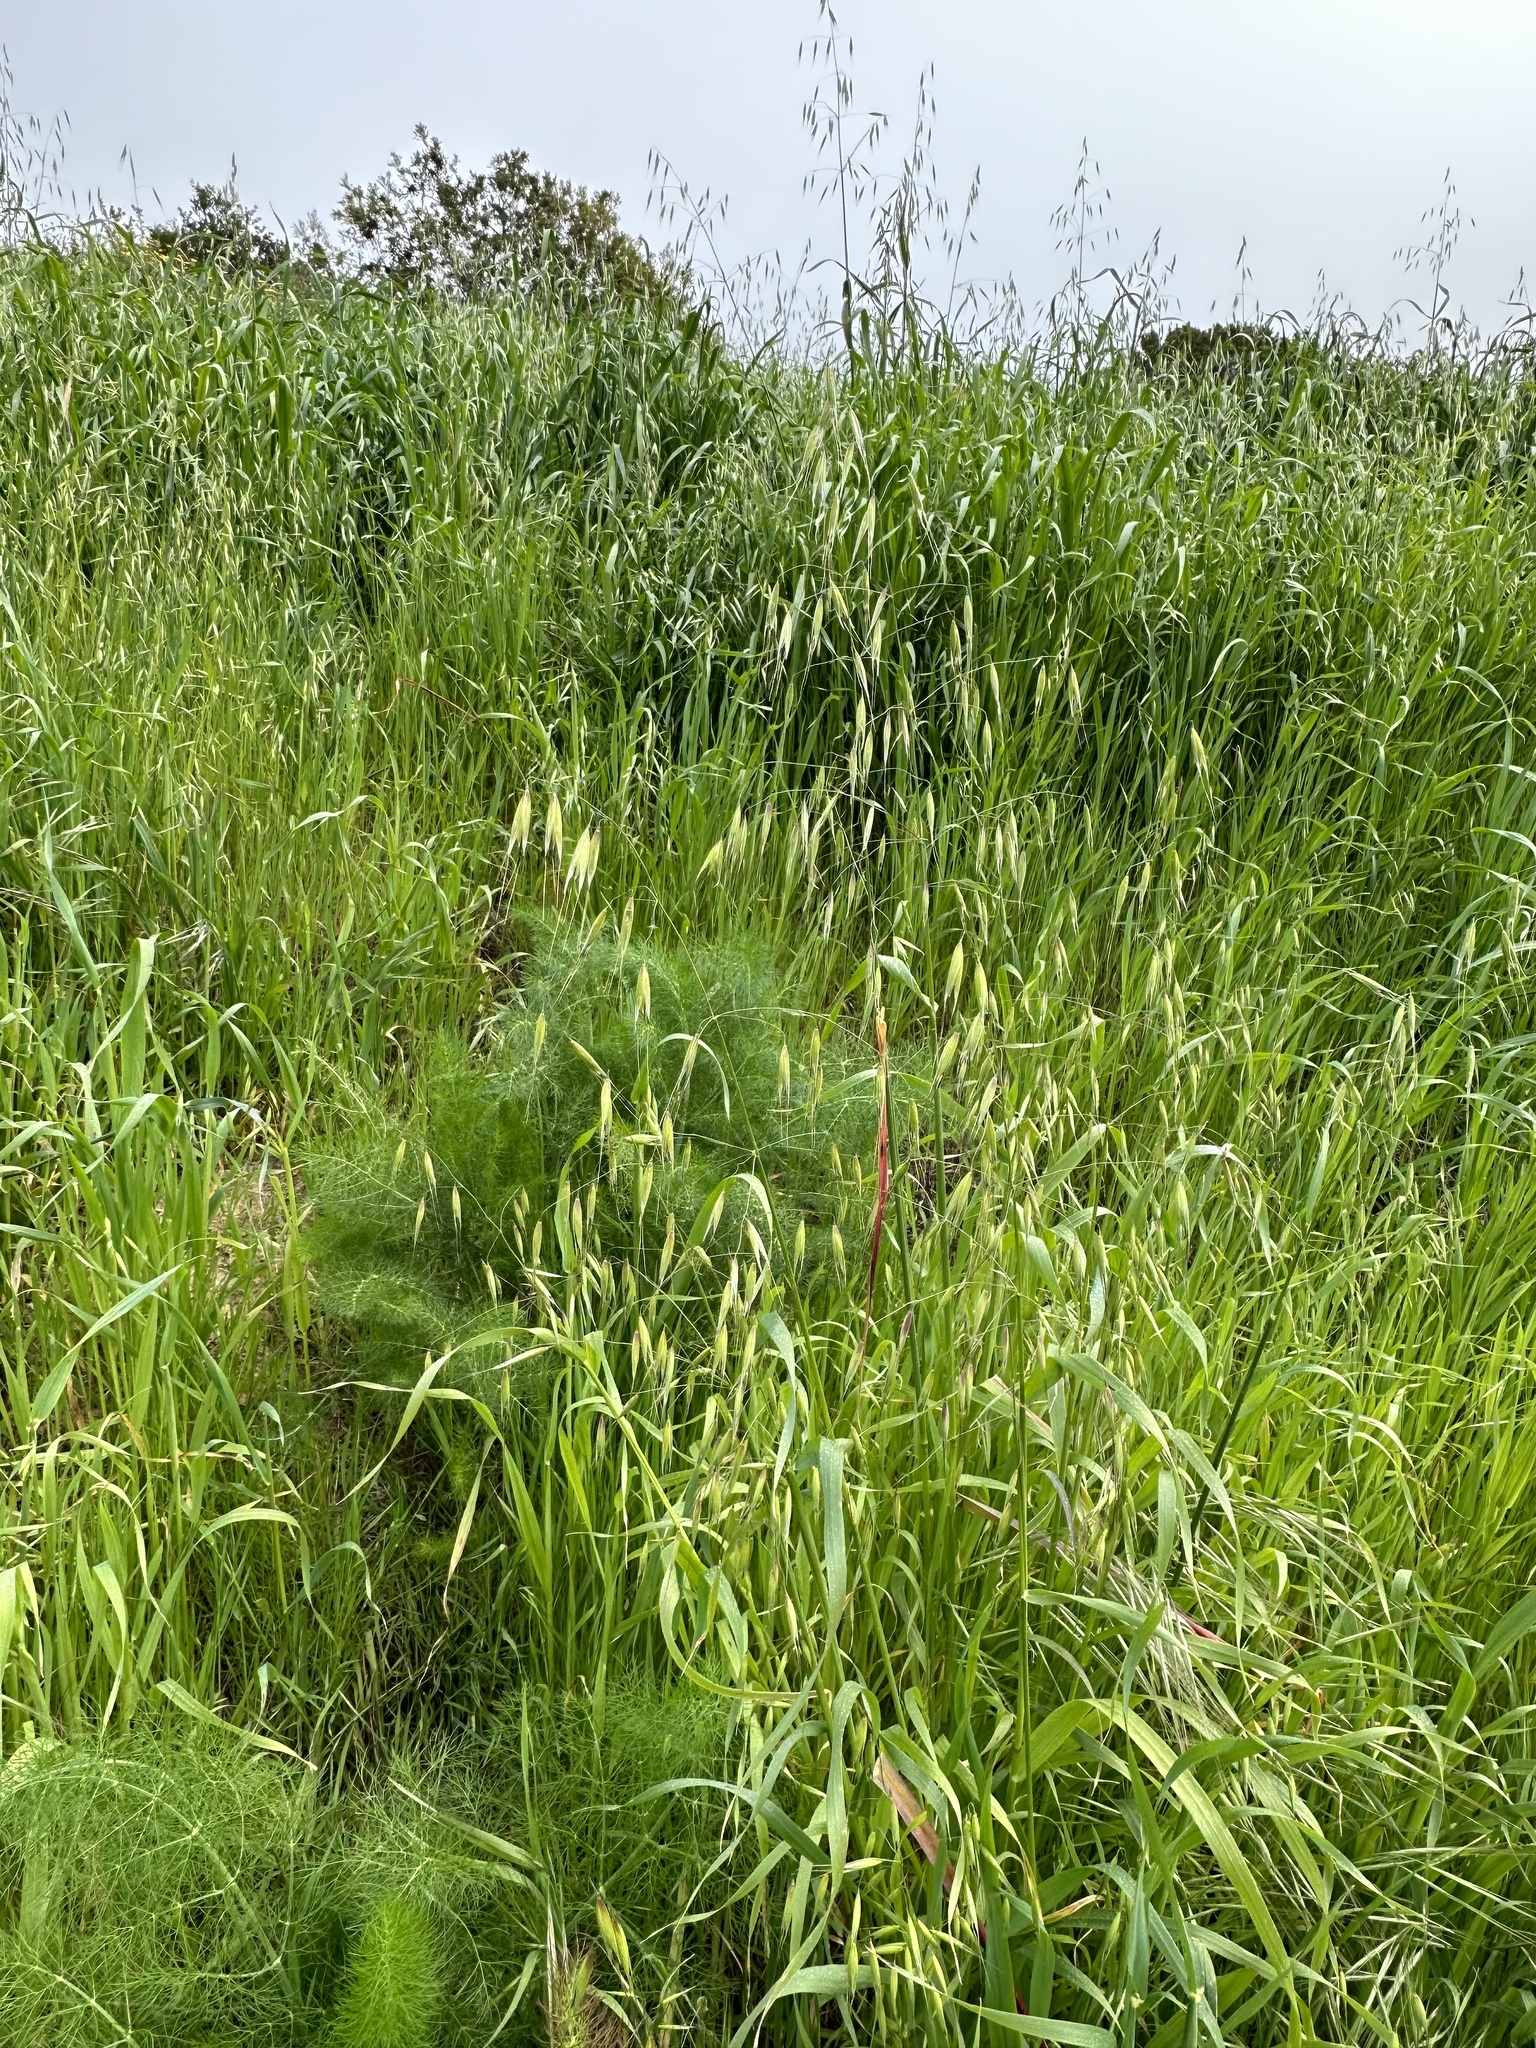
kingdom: Plantae
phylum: Tracheophyta
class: Liliopsida
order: Poales
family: Poaceae
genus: Avena
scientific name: Avena fatua
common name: Wild oat
